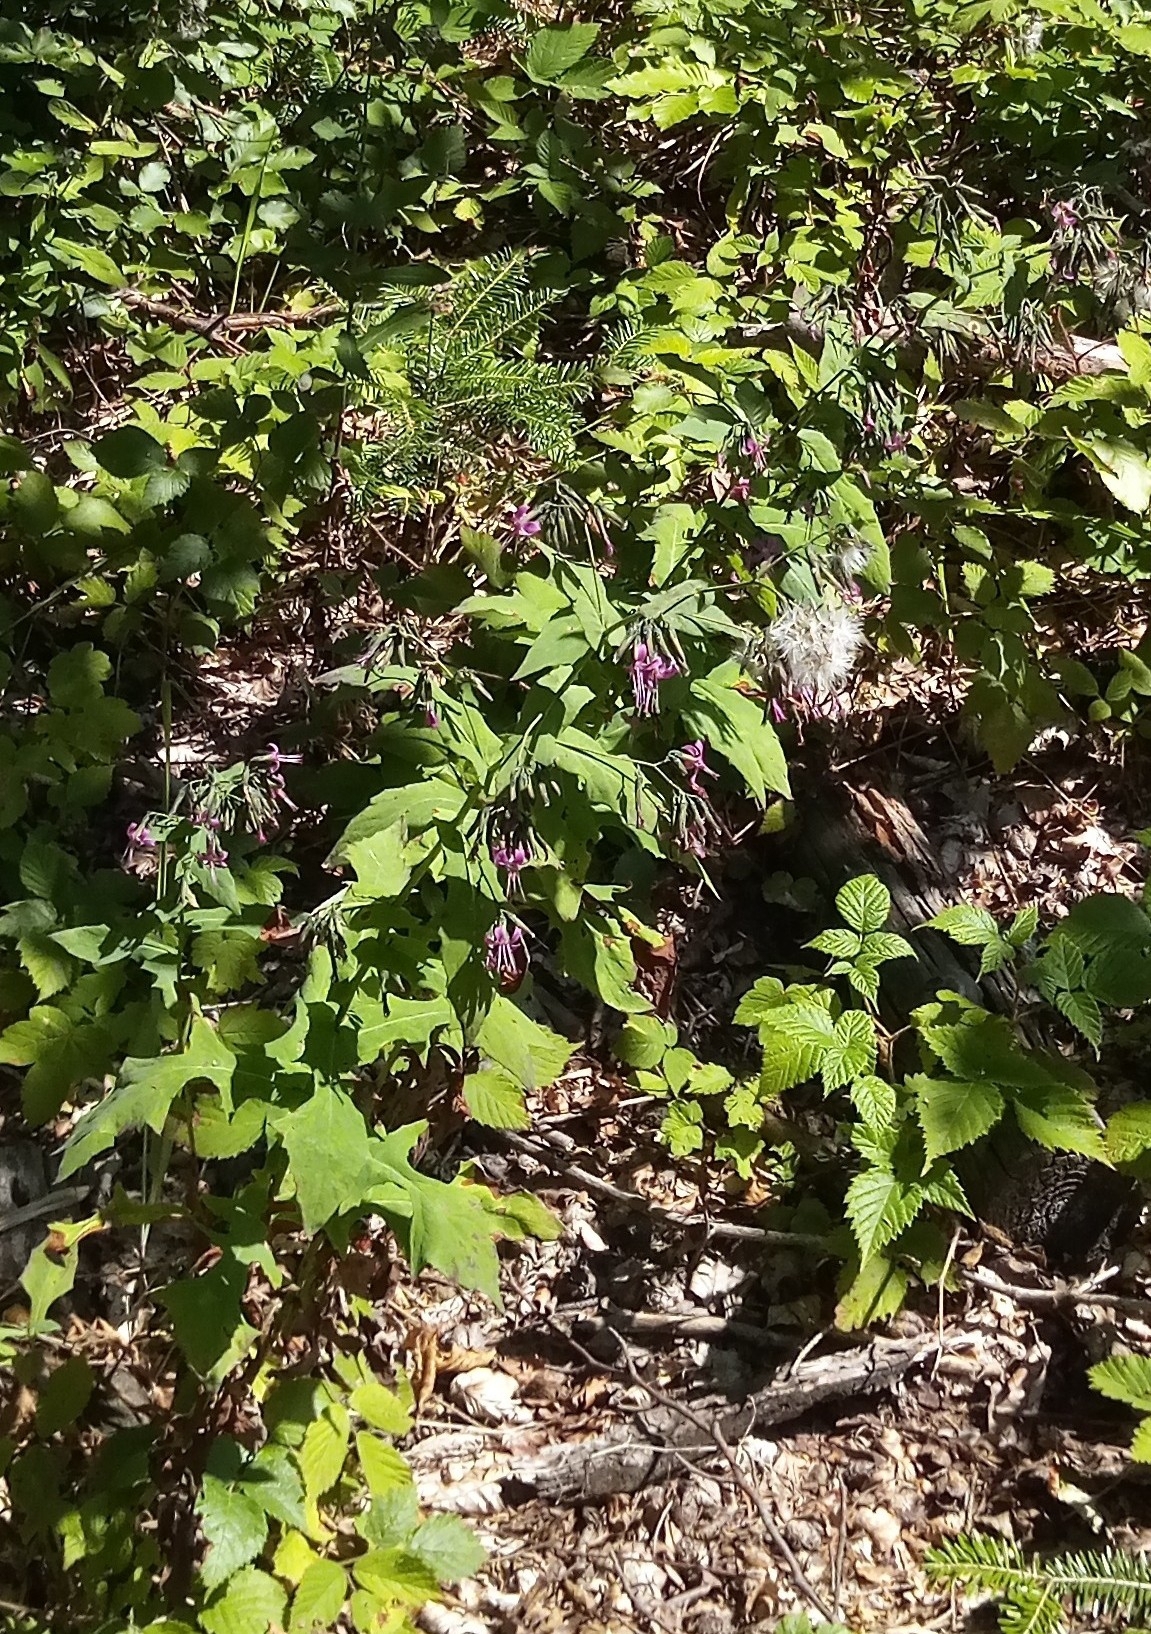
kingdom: Plantae
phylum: Tracheophyta
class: Magnoliopsida
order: Asterales
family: Asteraceae
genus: Prenanthes
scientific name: Prenanthes purpurea
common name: Purple lettuce
